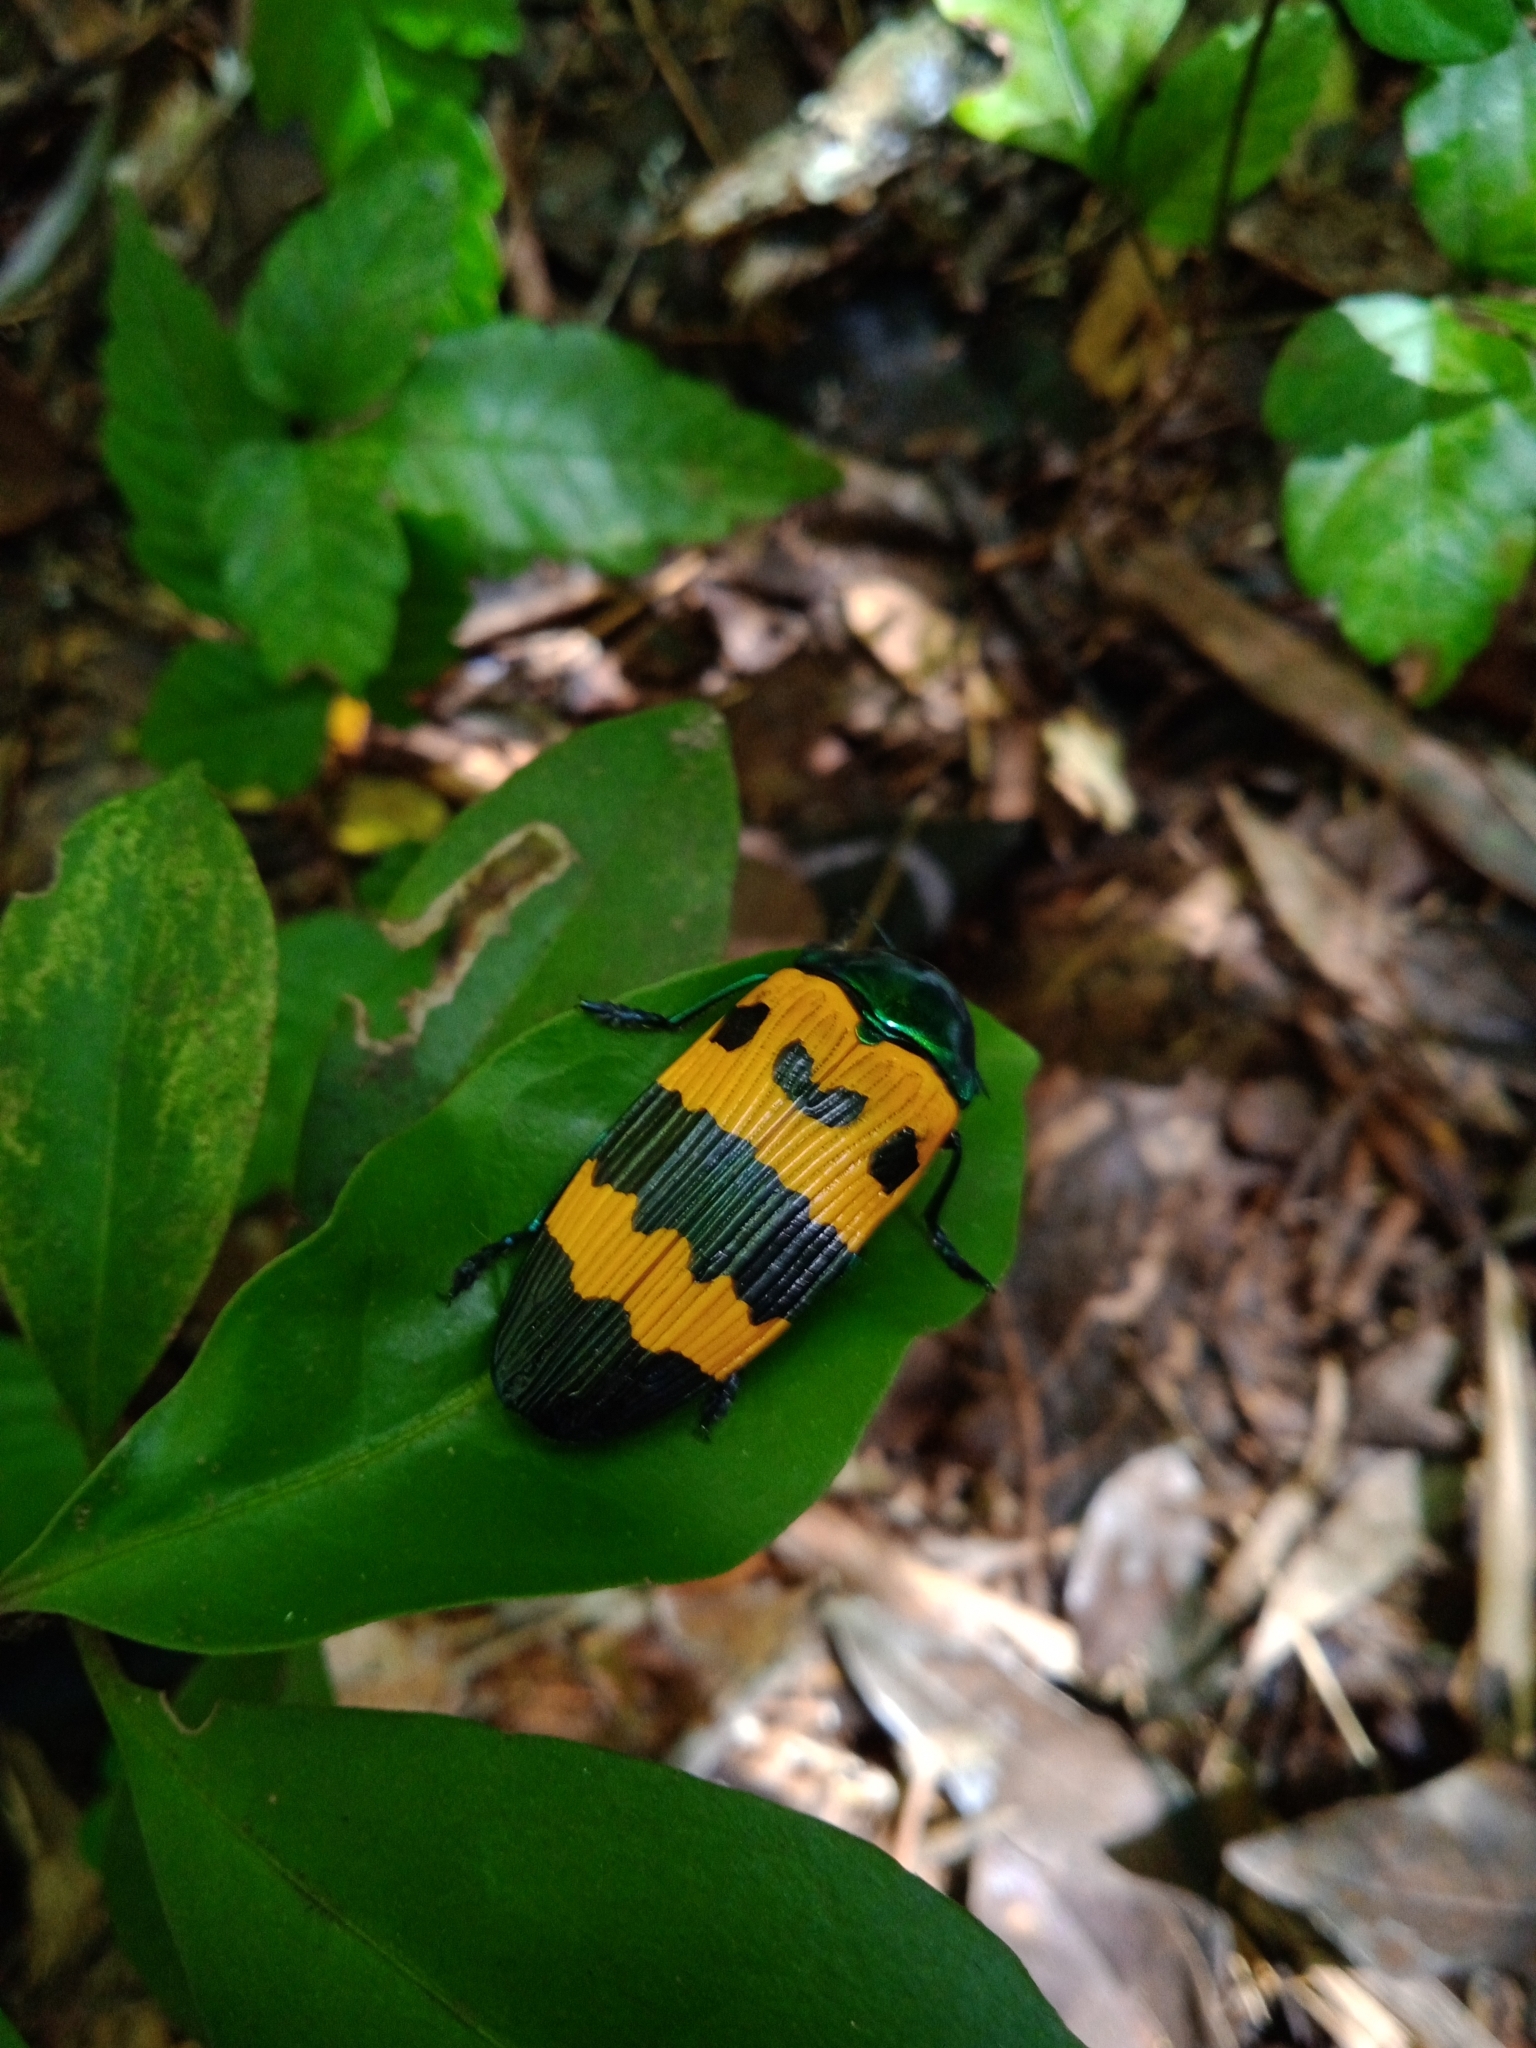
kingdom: Animalia
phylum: Arthropoda
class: Insecta
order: Coleoptera
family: Buprestidae
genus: Conognatha
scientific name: Conognatha magnifica
